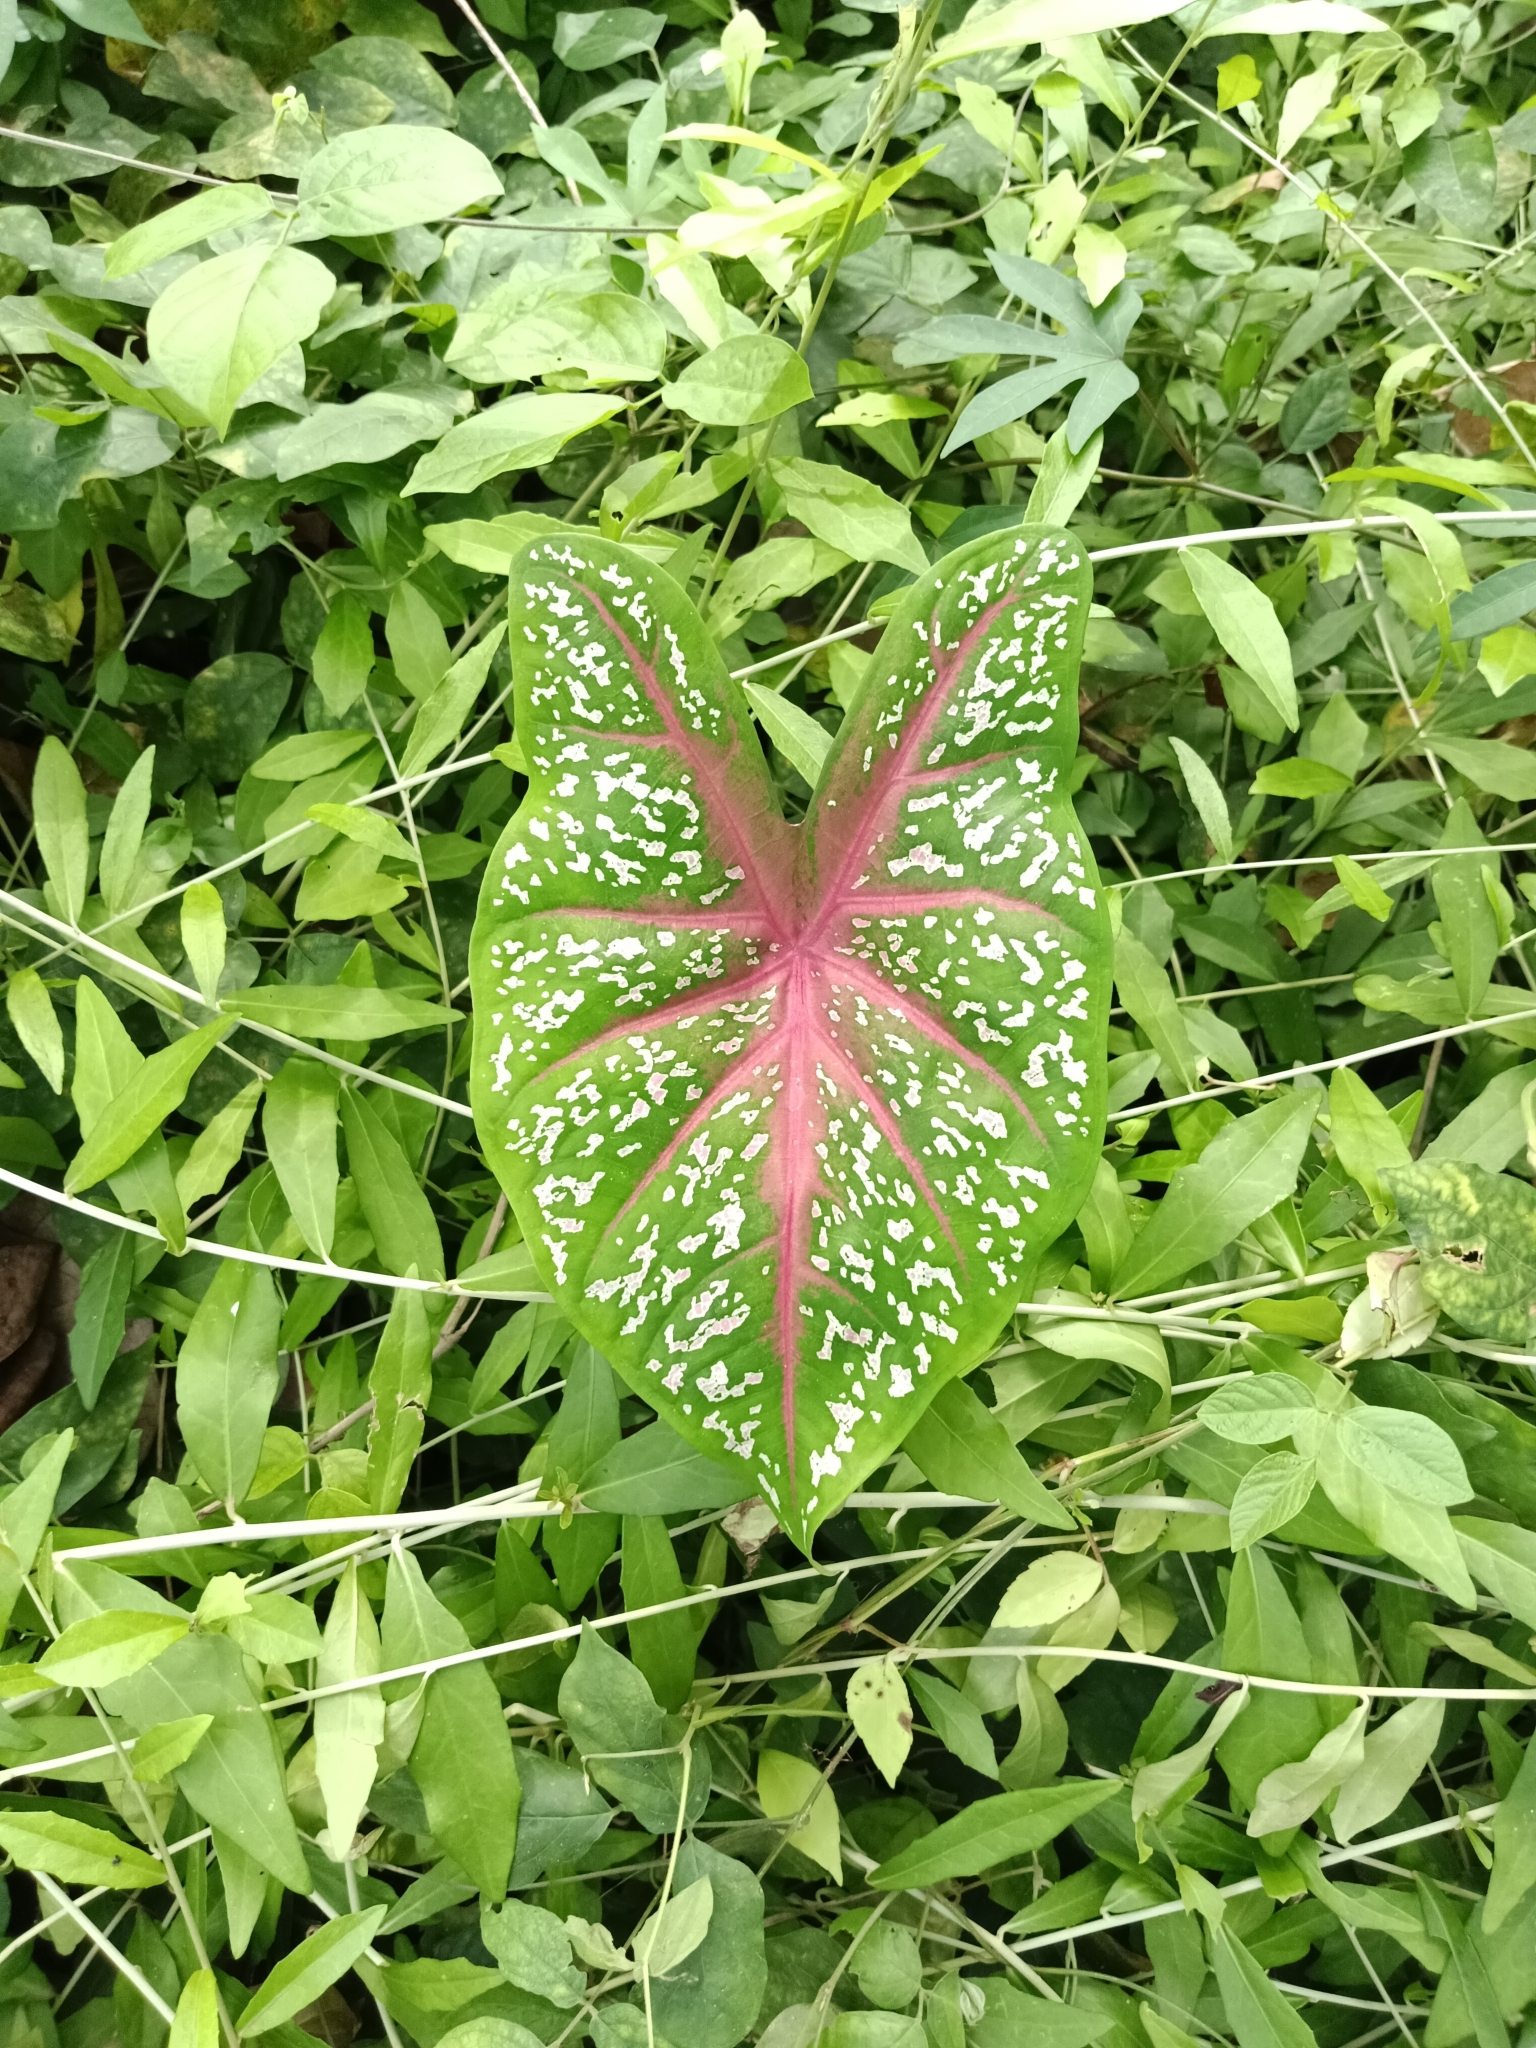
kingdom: Plantae
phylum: Tracheophyta
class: Liliopsida
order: Alismatales
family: Araceae
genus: Caladium
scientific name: Caladium bicolor
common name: Artist's pallet
